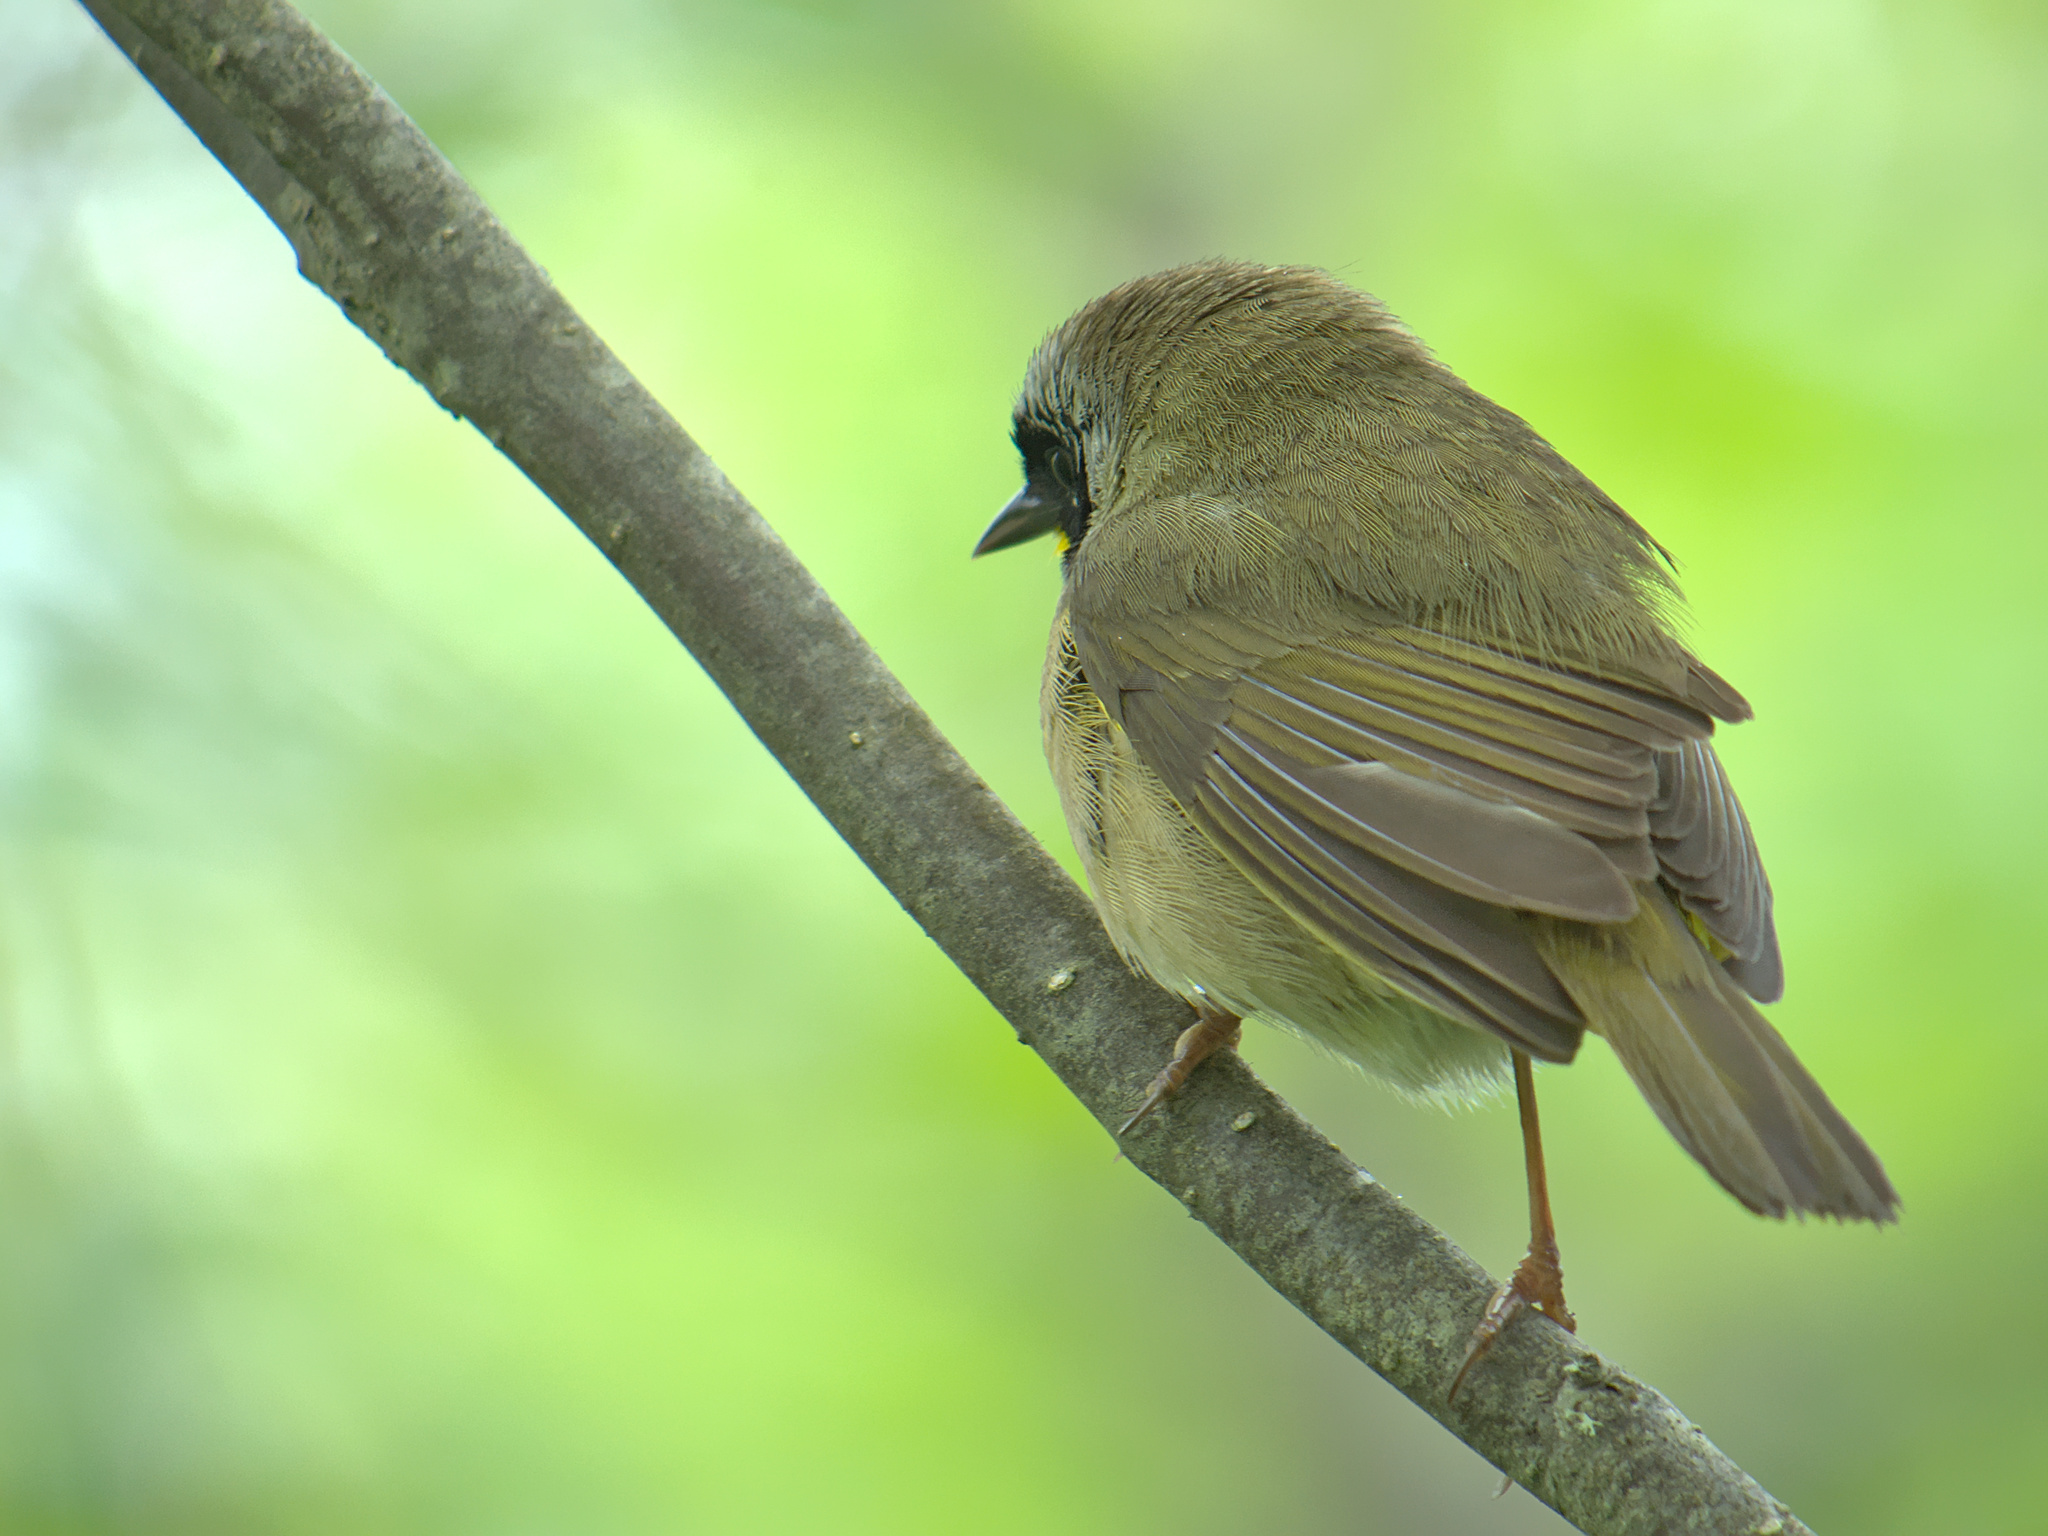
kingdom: Animalia
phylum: Chordata
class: Aves
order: Passeriformes
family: Parulidae
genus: Geothlypis
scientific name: Geothlypis trichas
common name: Common yellowthroat
